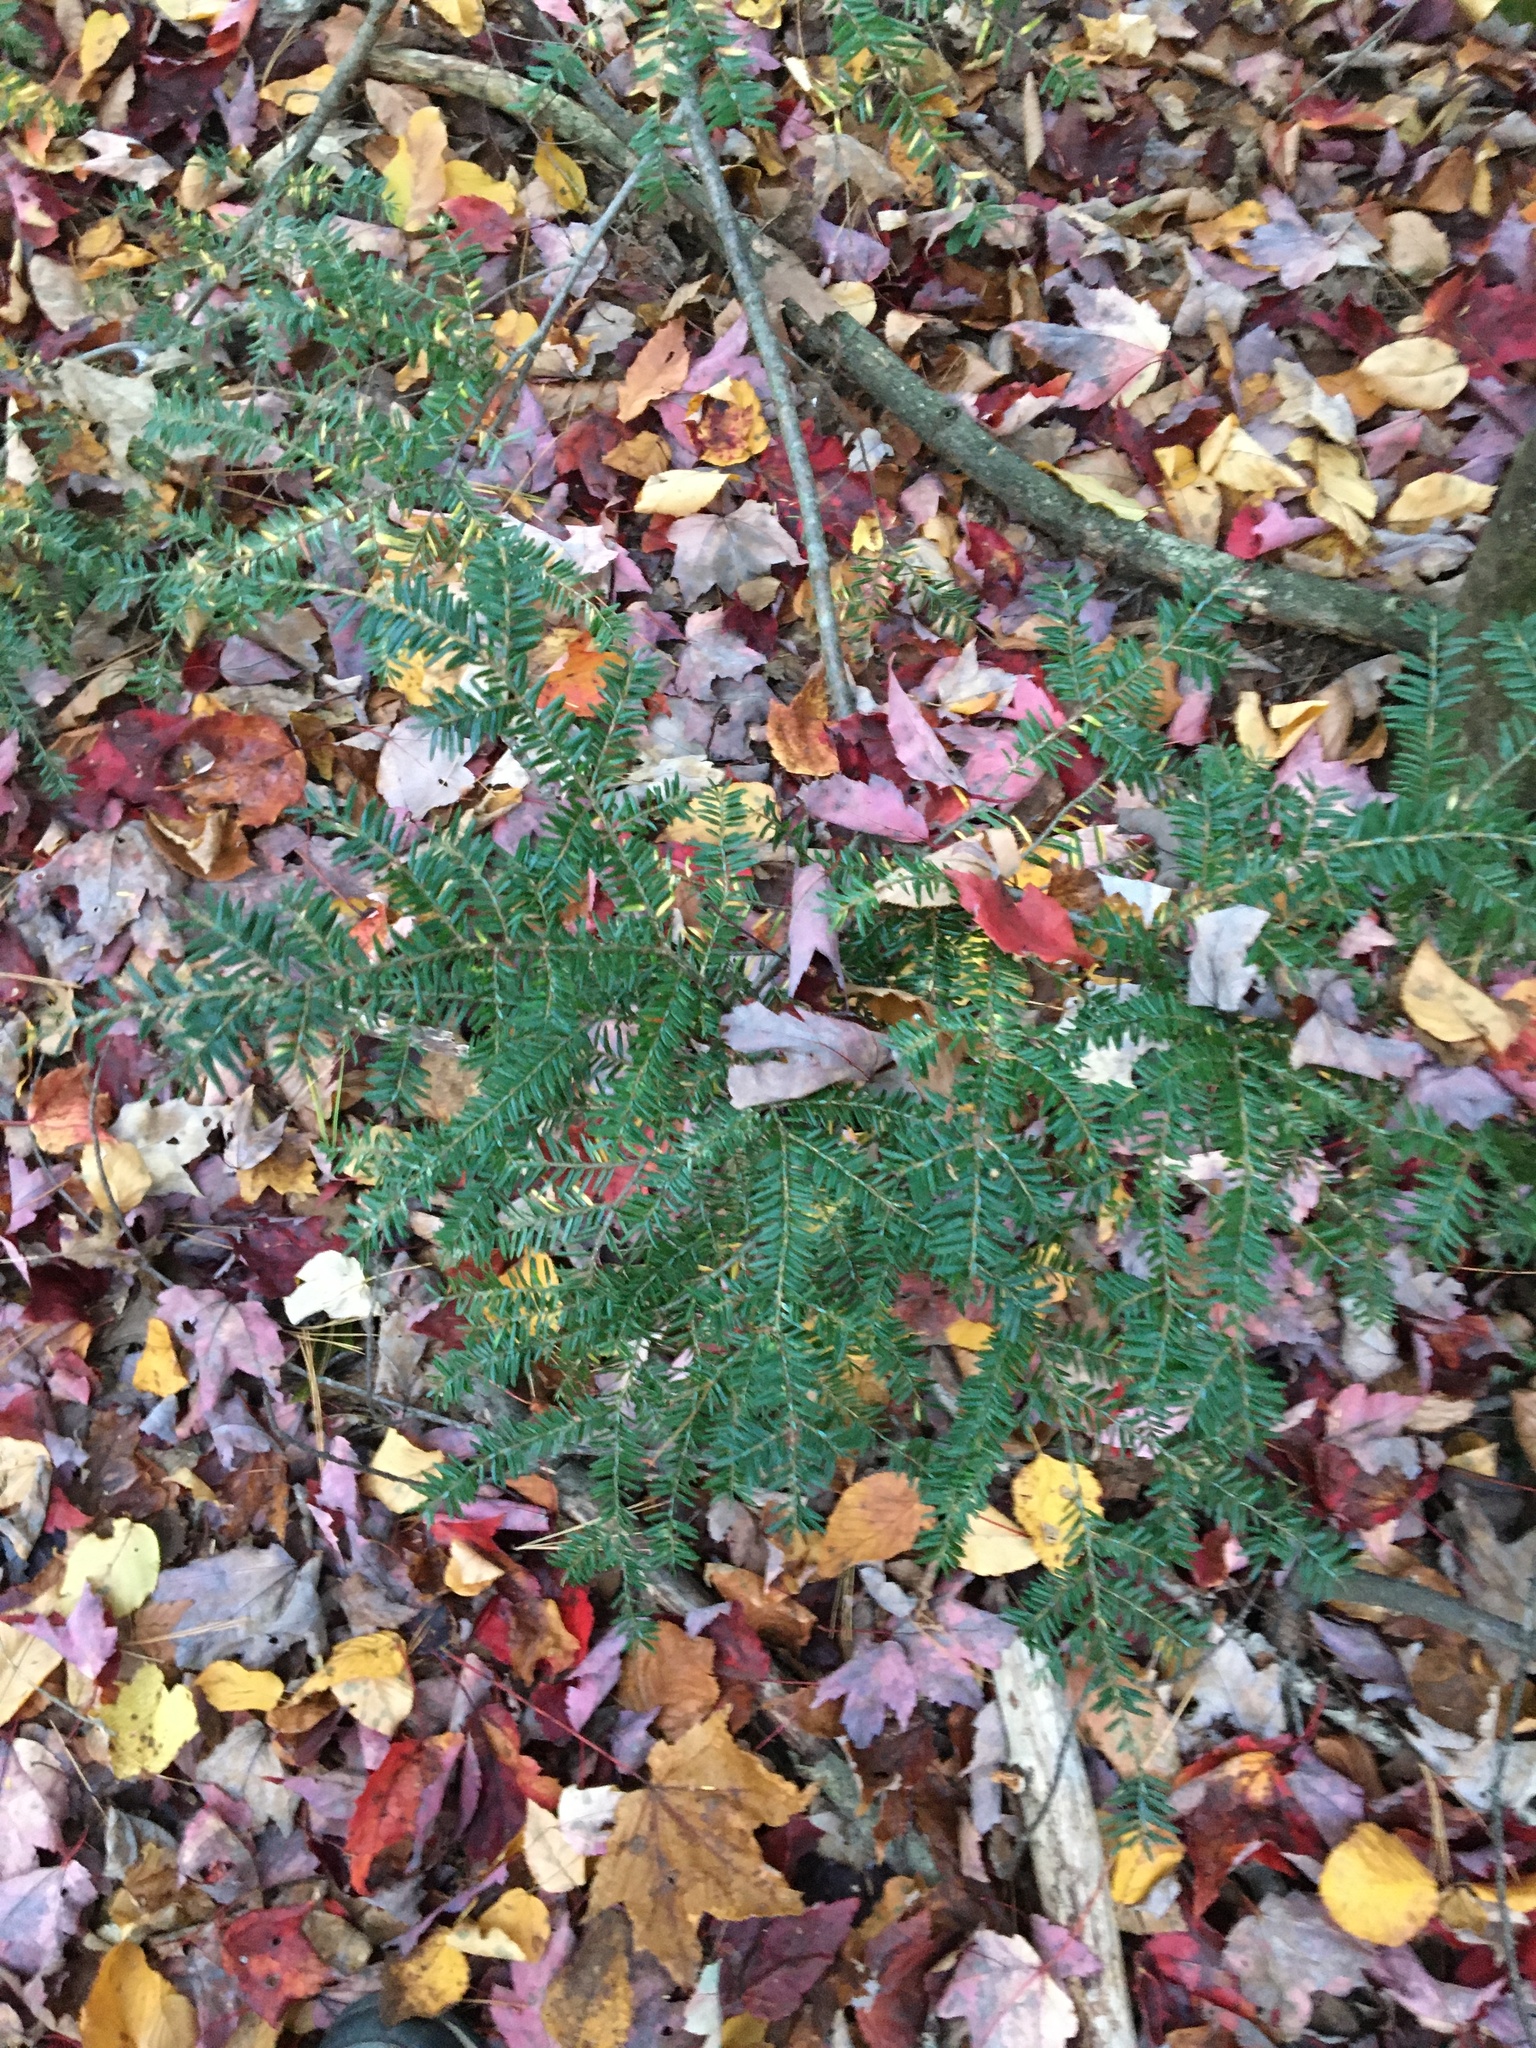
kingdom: Plantae
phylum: Tracheophyta
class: Pinopsida
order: Pinales
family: Pinaceae
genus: Tsuga
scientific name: Tsuga canadensis
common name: Eastern hemlock
